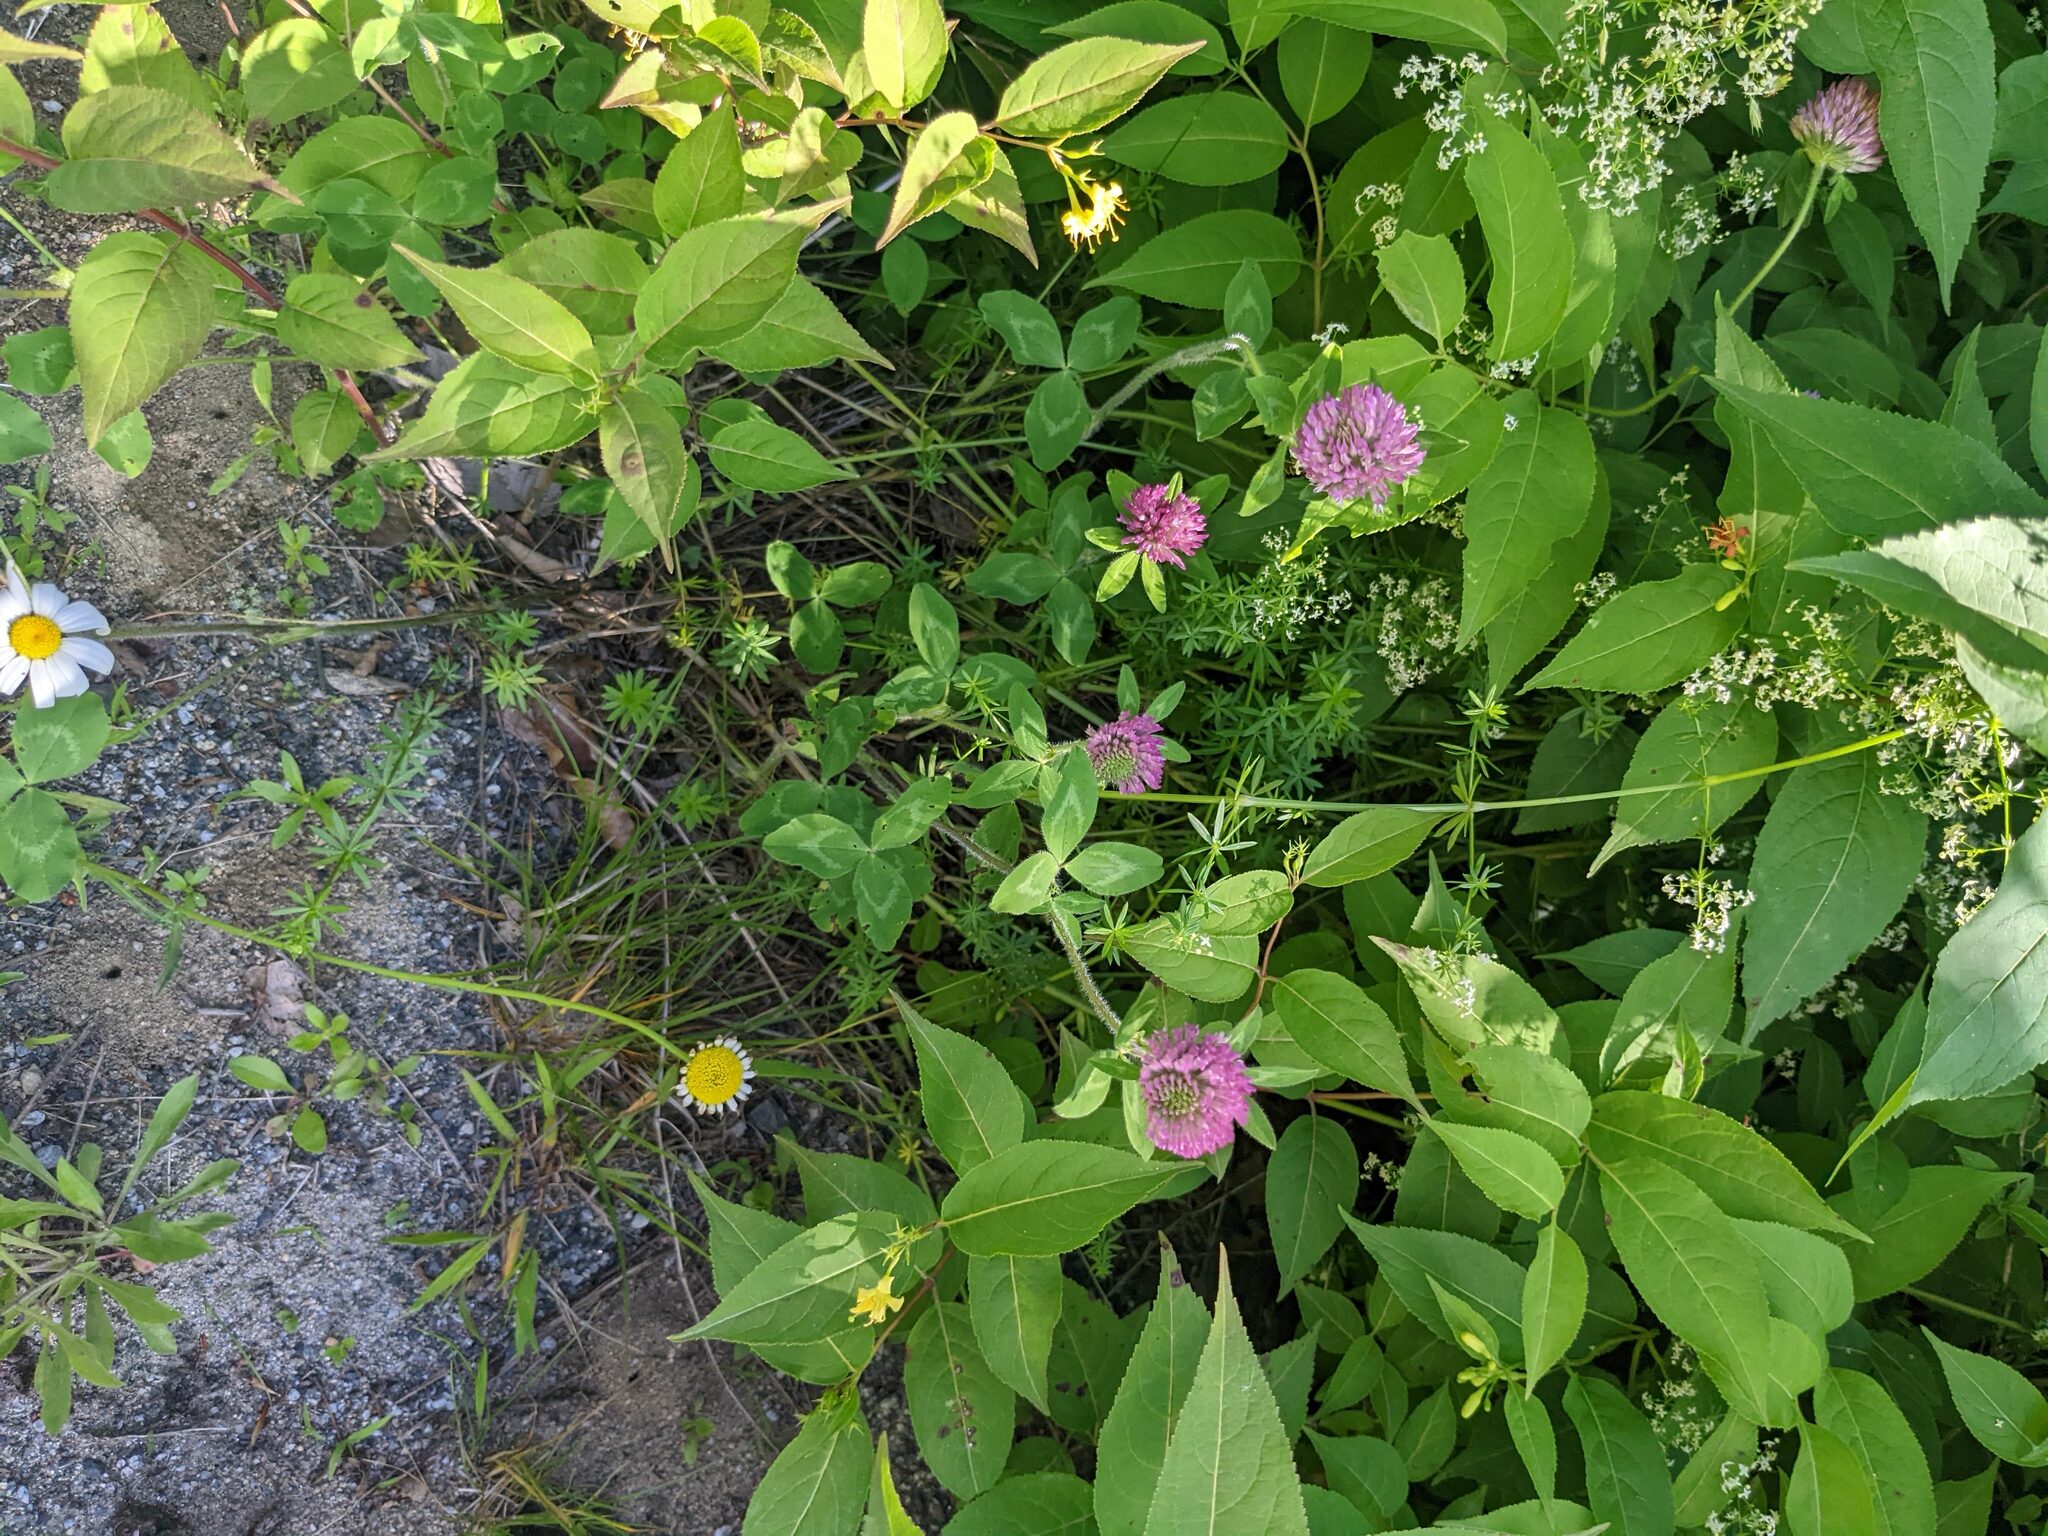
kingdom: Plantae
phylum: Tracheophyta
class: Magnoliopsida
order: Fabales
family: Fabaceae
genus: Trifolium
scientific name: Trifolium pratense
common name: Red clover
